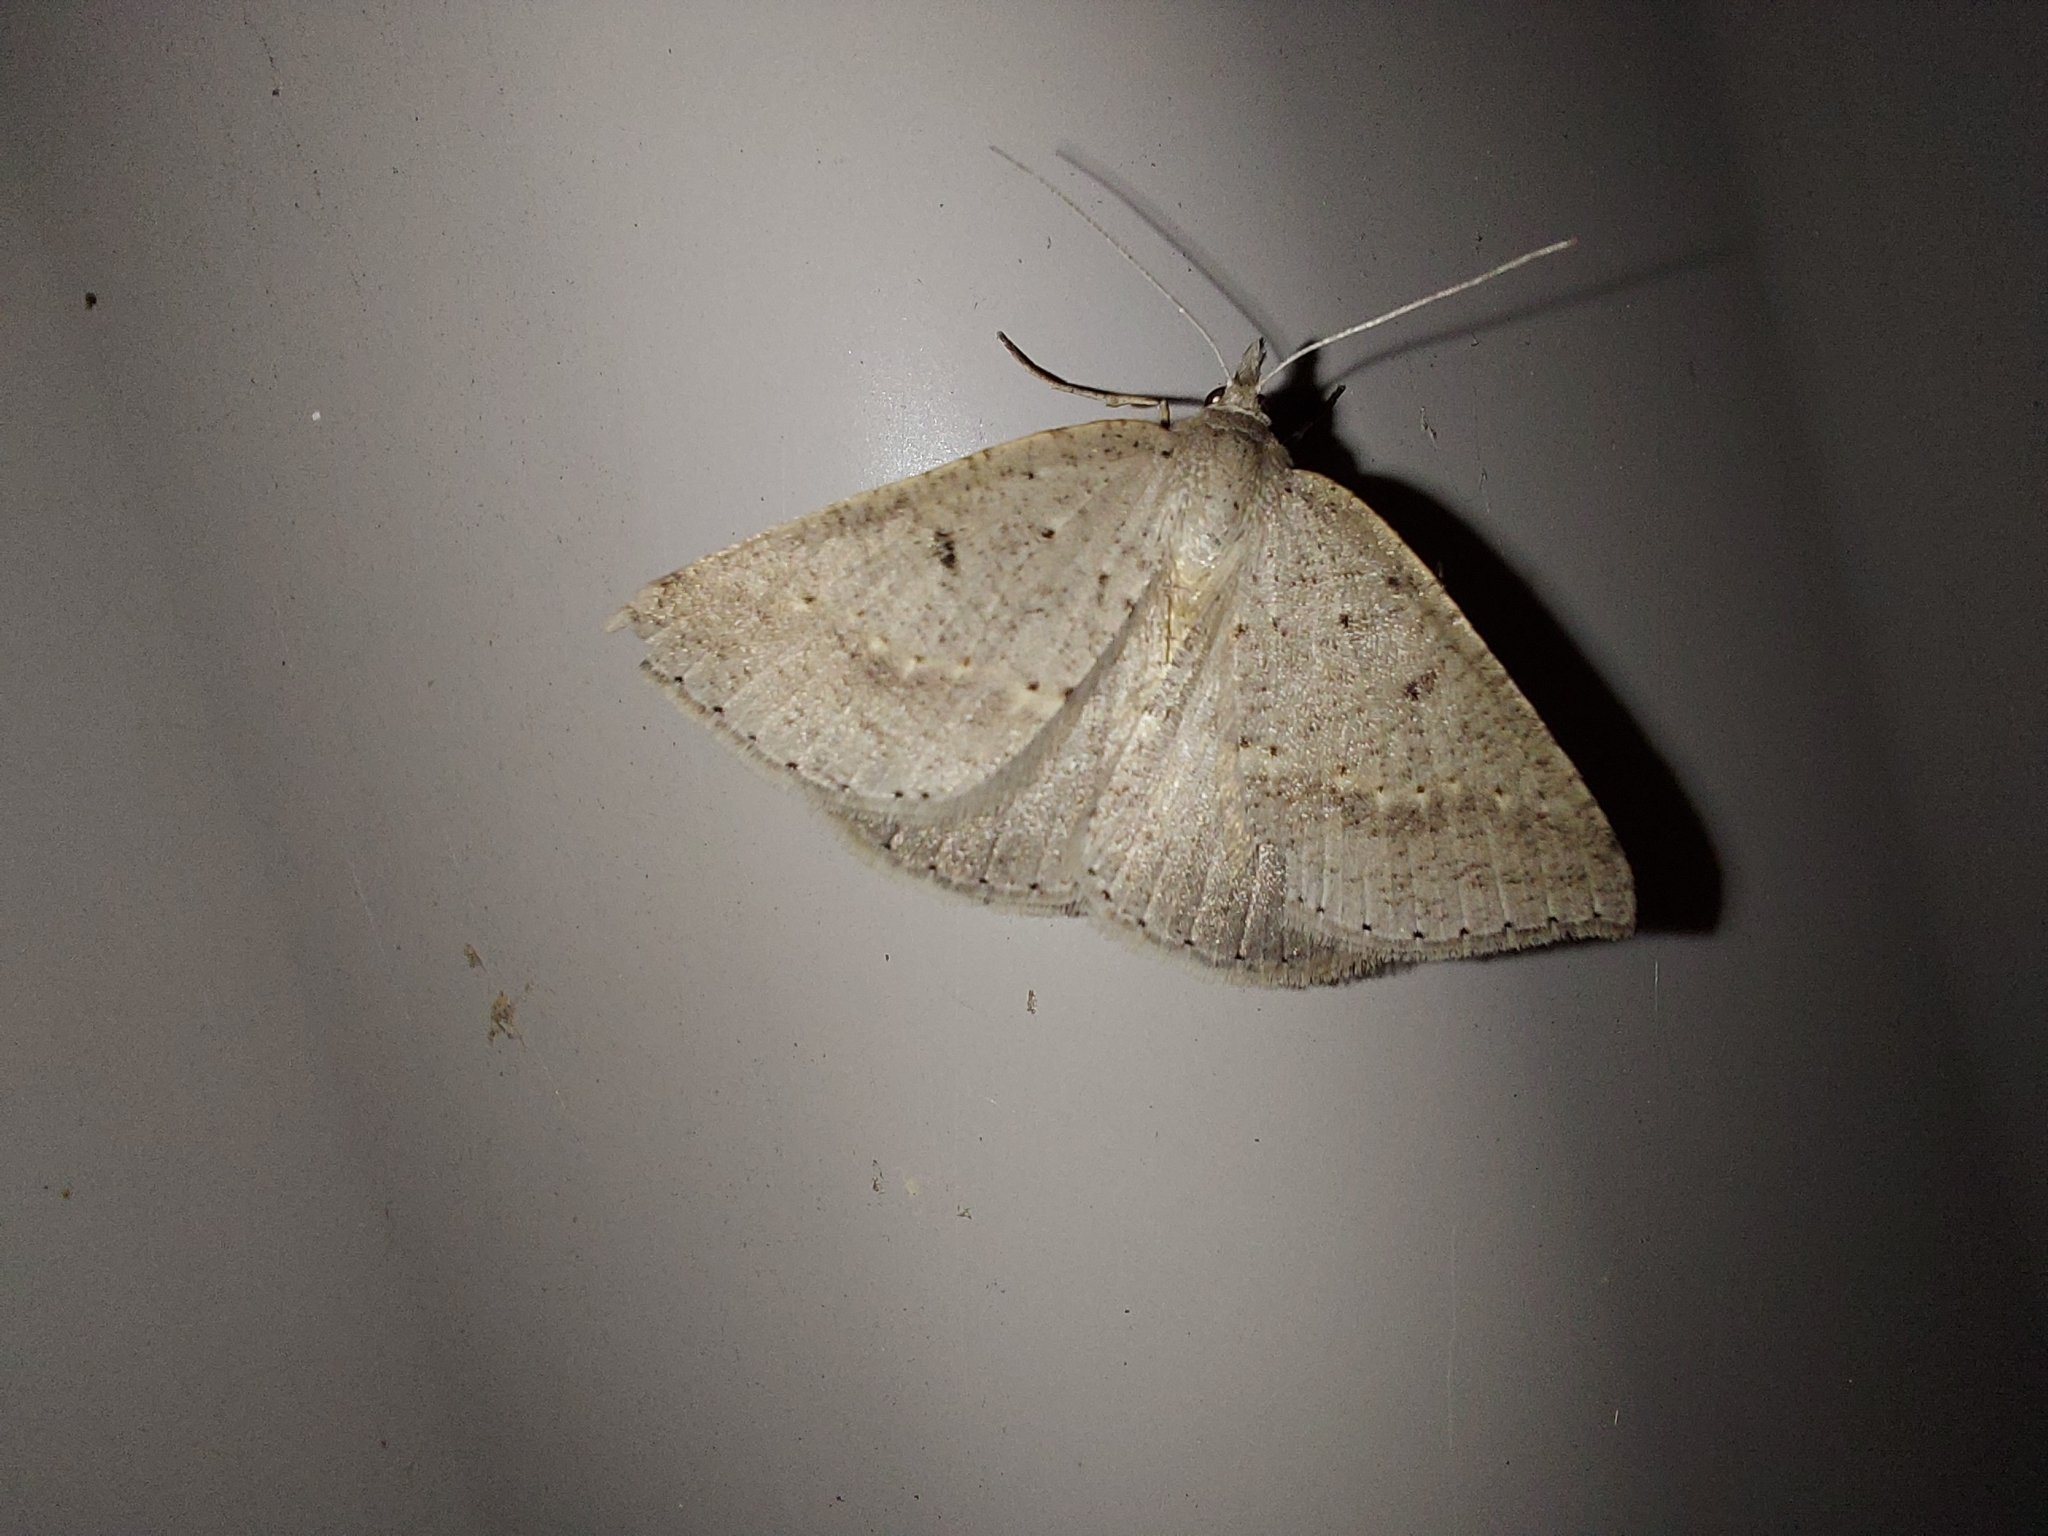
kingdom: Animalia
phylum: Arthropoda
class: Insecta
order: Lepidoptera
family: Geometridae
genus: Nearcha
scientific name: Nearcha nullata
